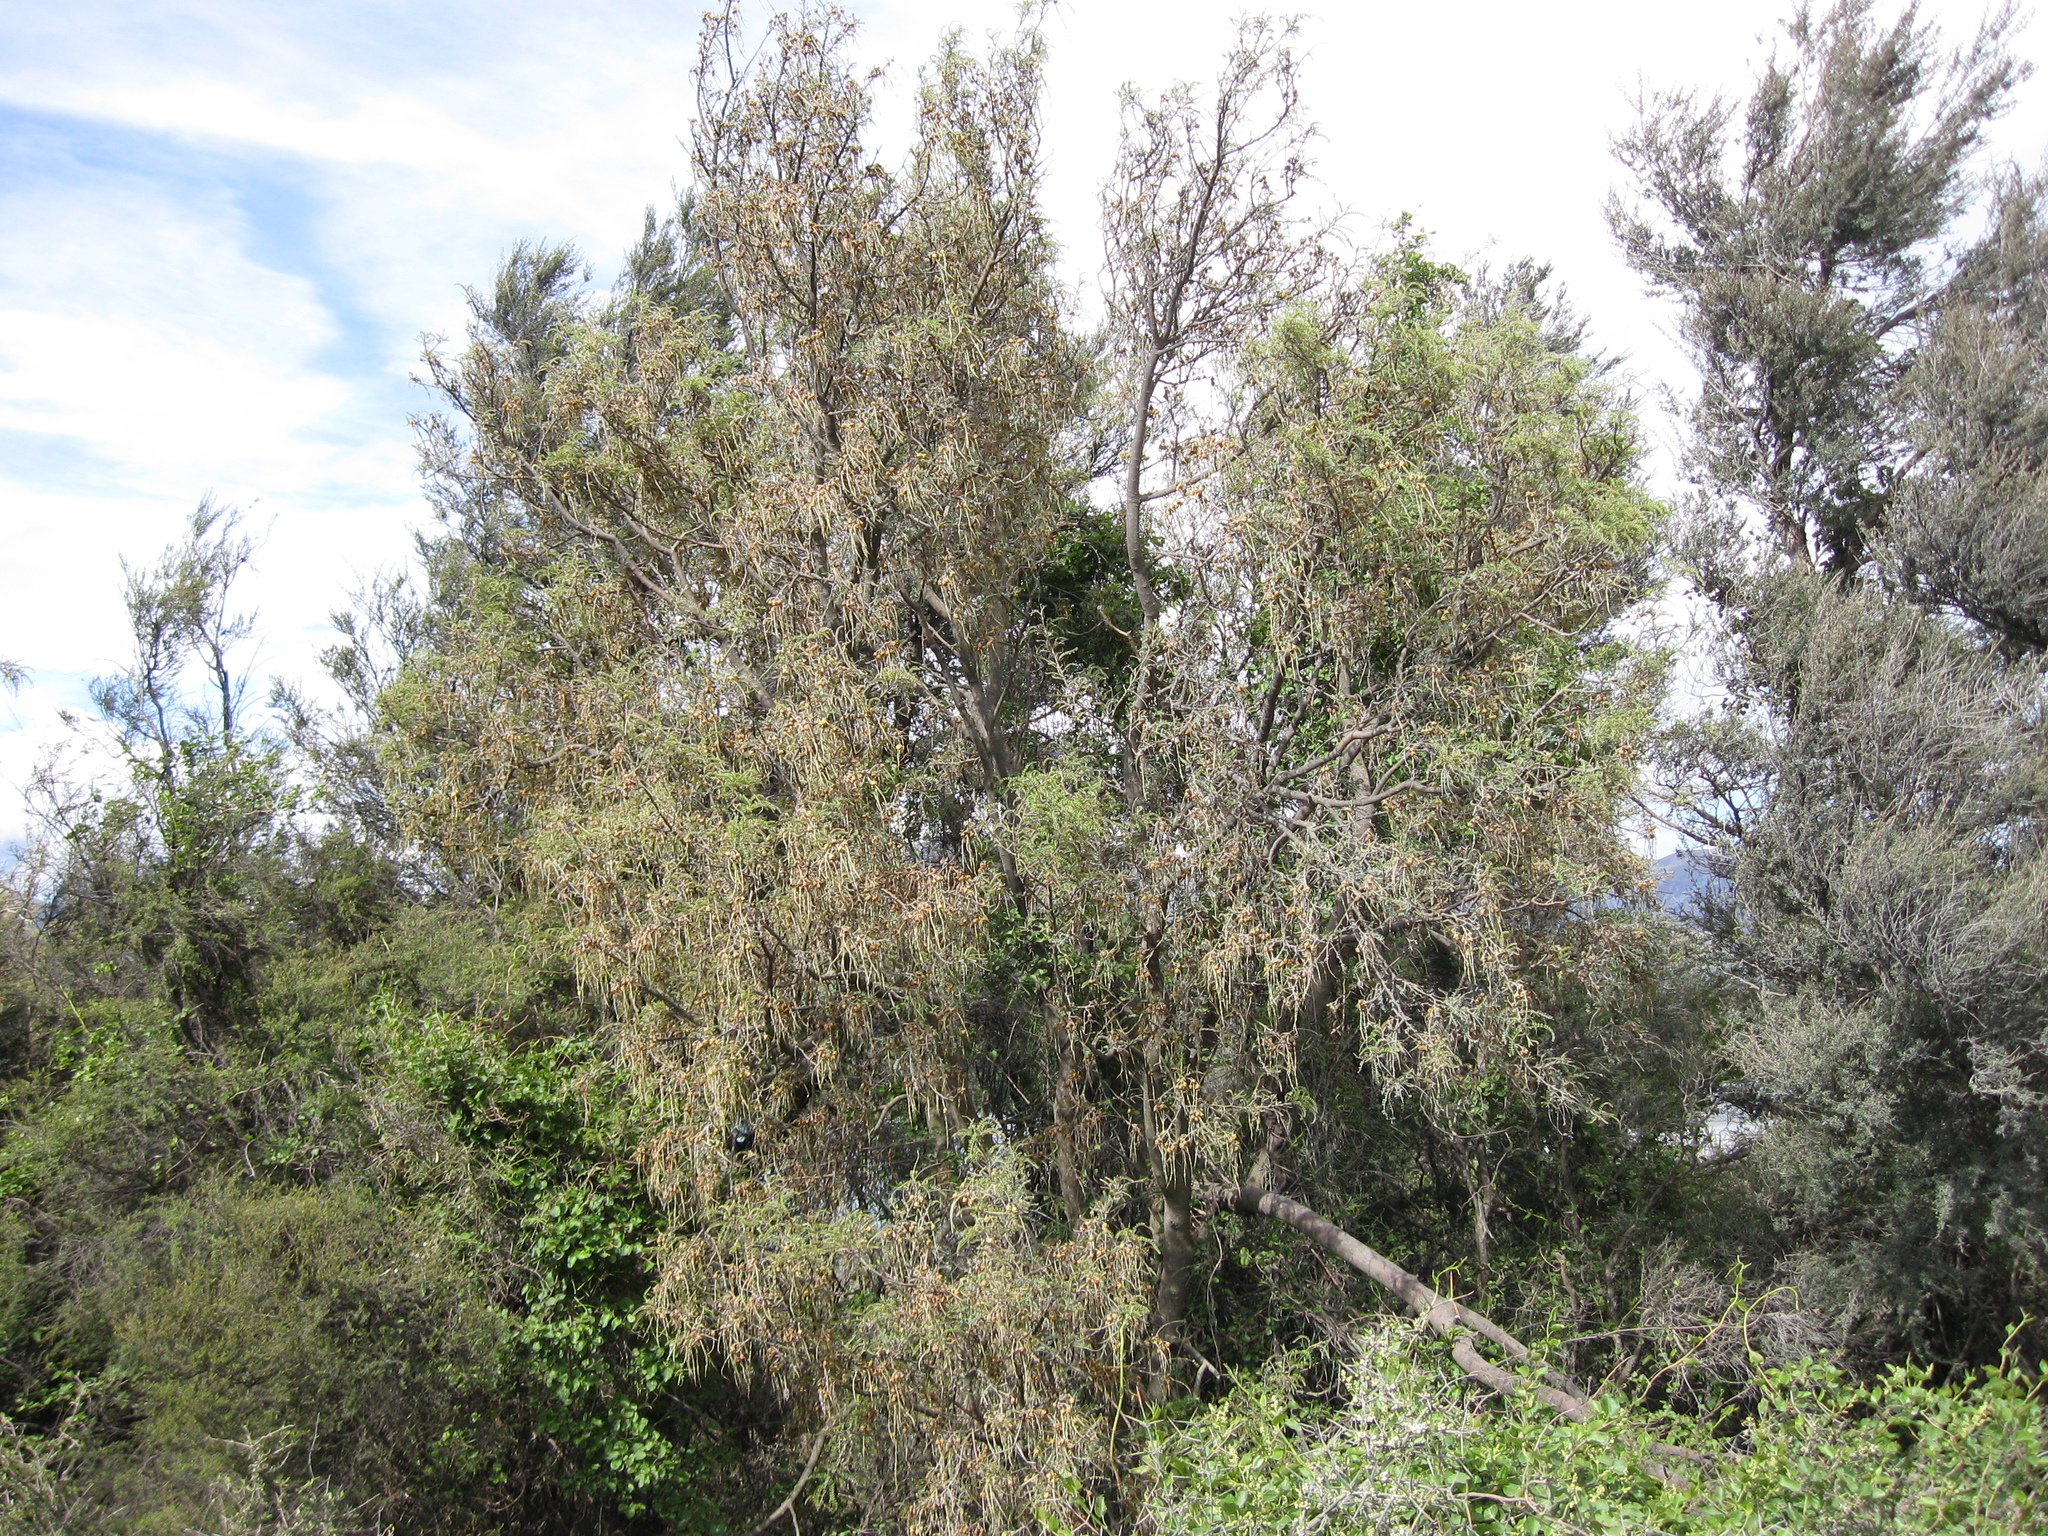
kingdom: Plantae
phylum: Tracheophyta
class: Magnoliopsida
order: Fabales
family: Fabaceae
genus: Sophora
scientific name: Sophora microphylla
